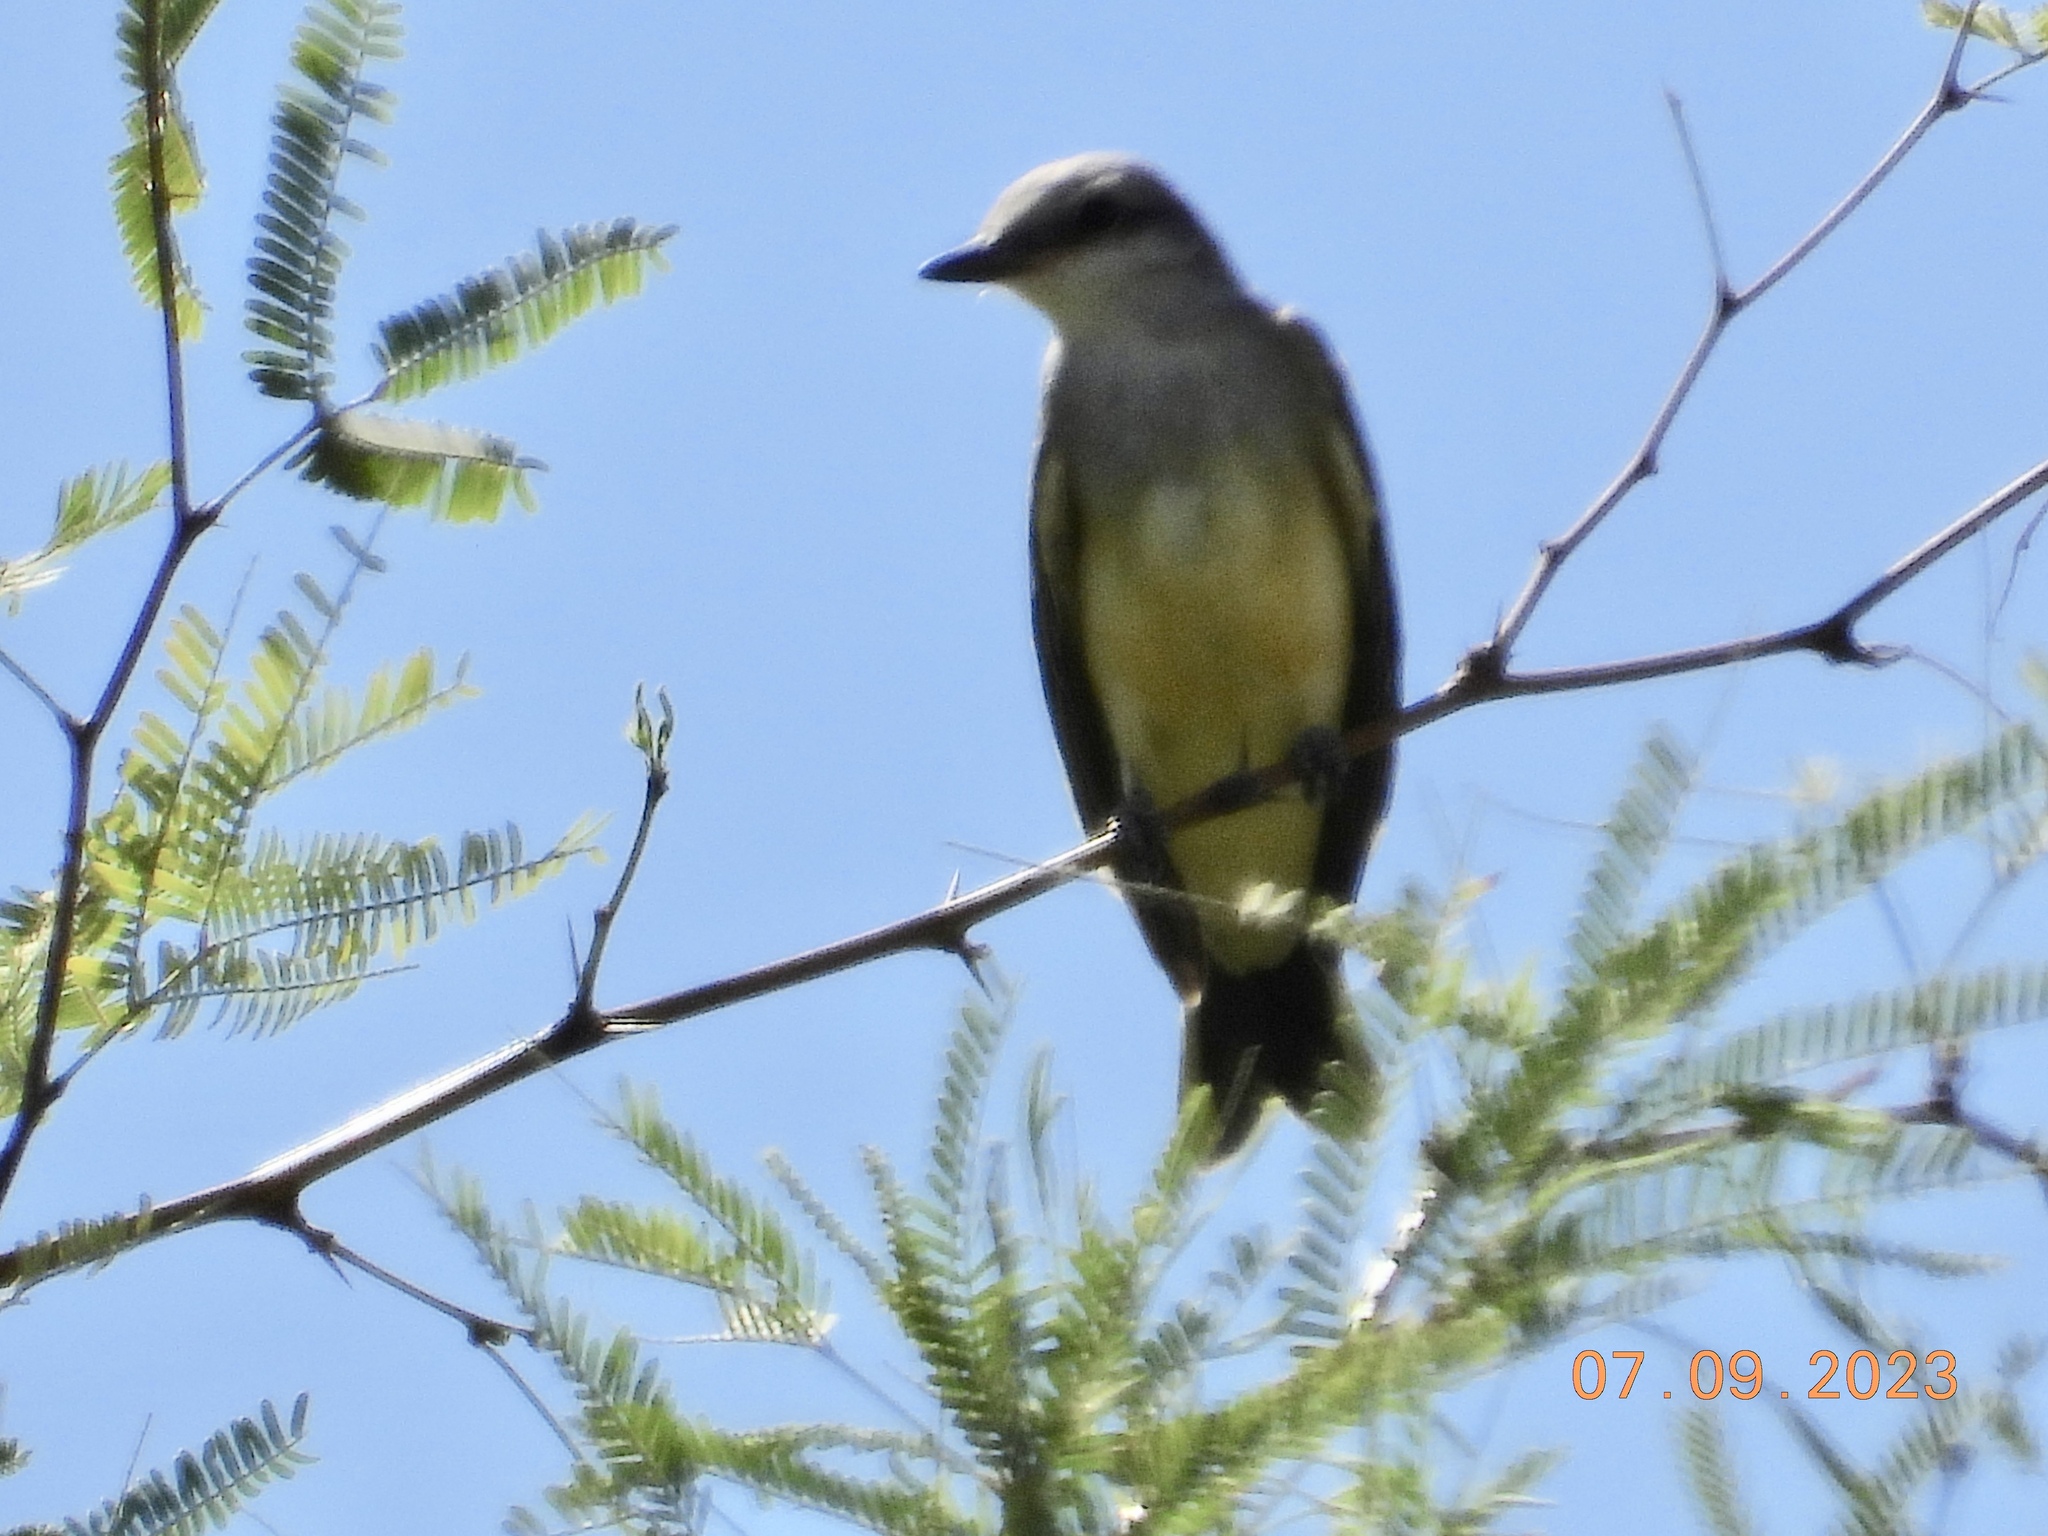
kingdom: Animalia
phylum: Chordata
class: Aves
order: Passeriformes
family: Tyrannidae
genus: Tyrannus
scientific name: Tyrannus verticalis
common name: Western kingbird
